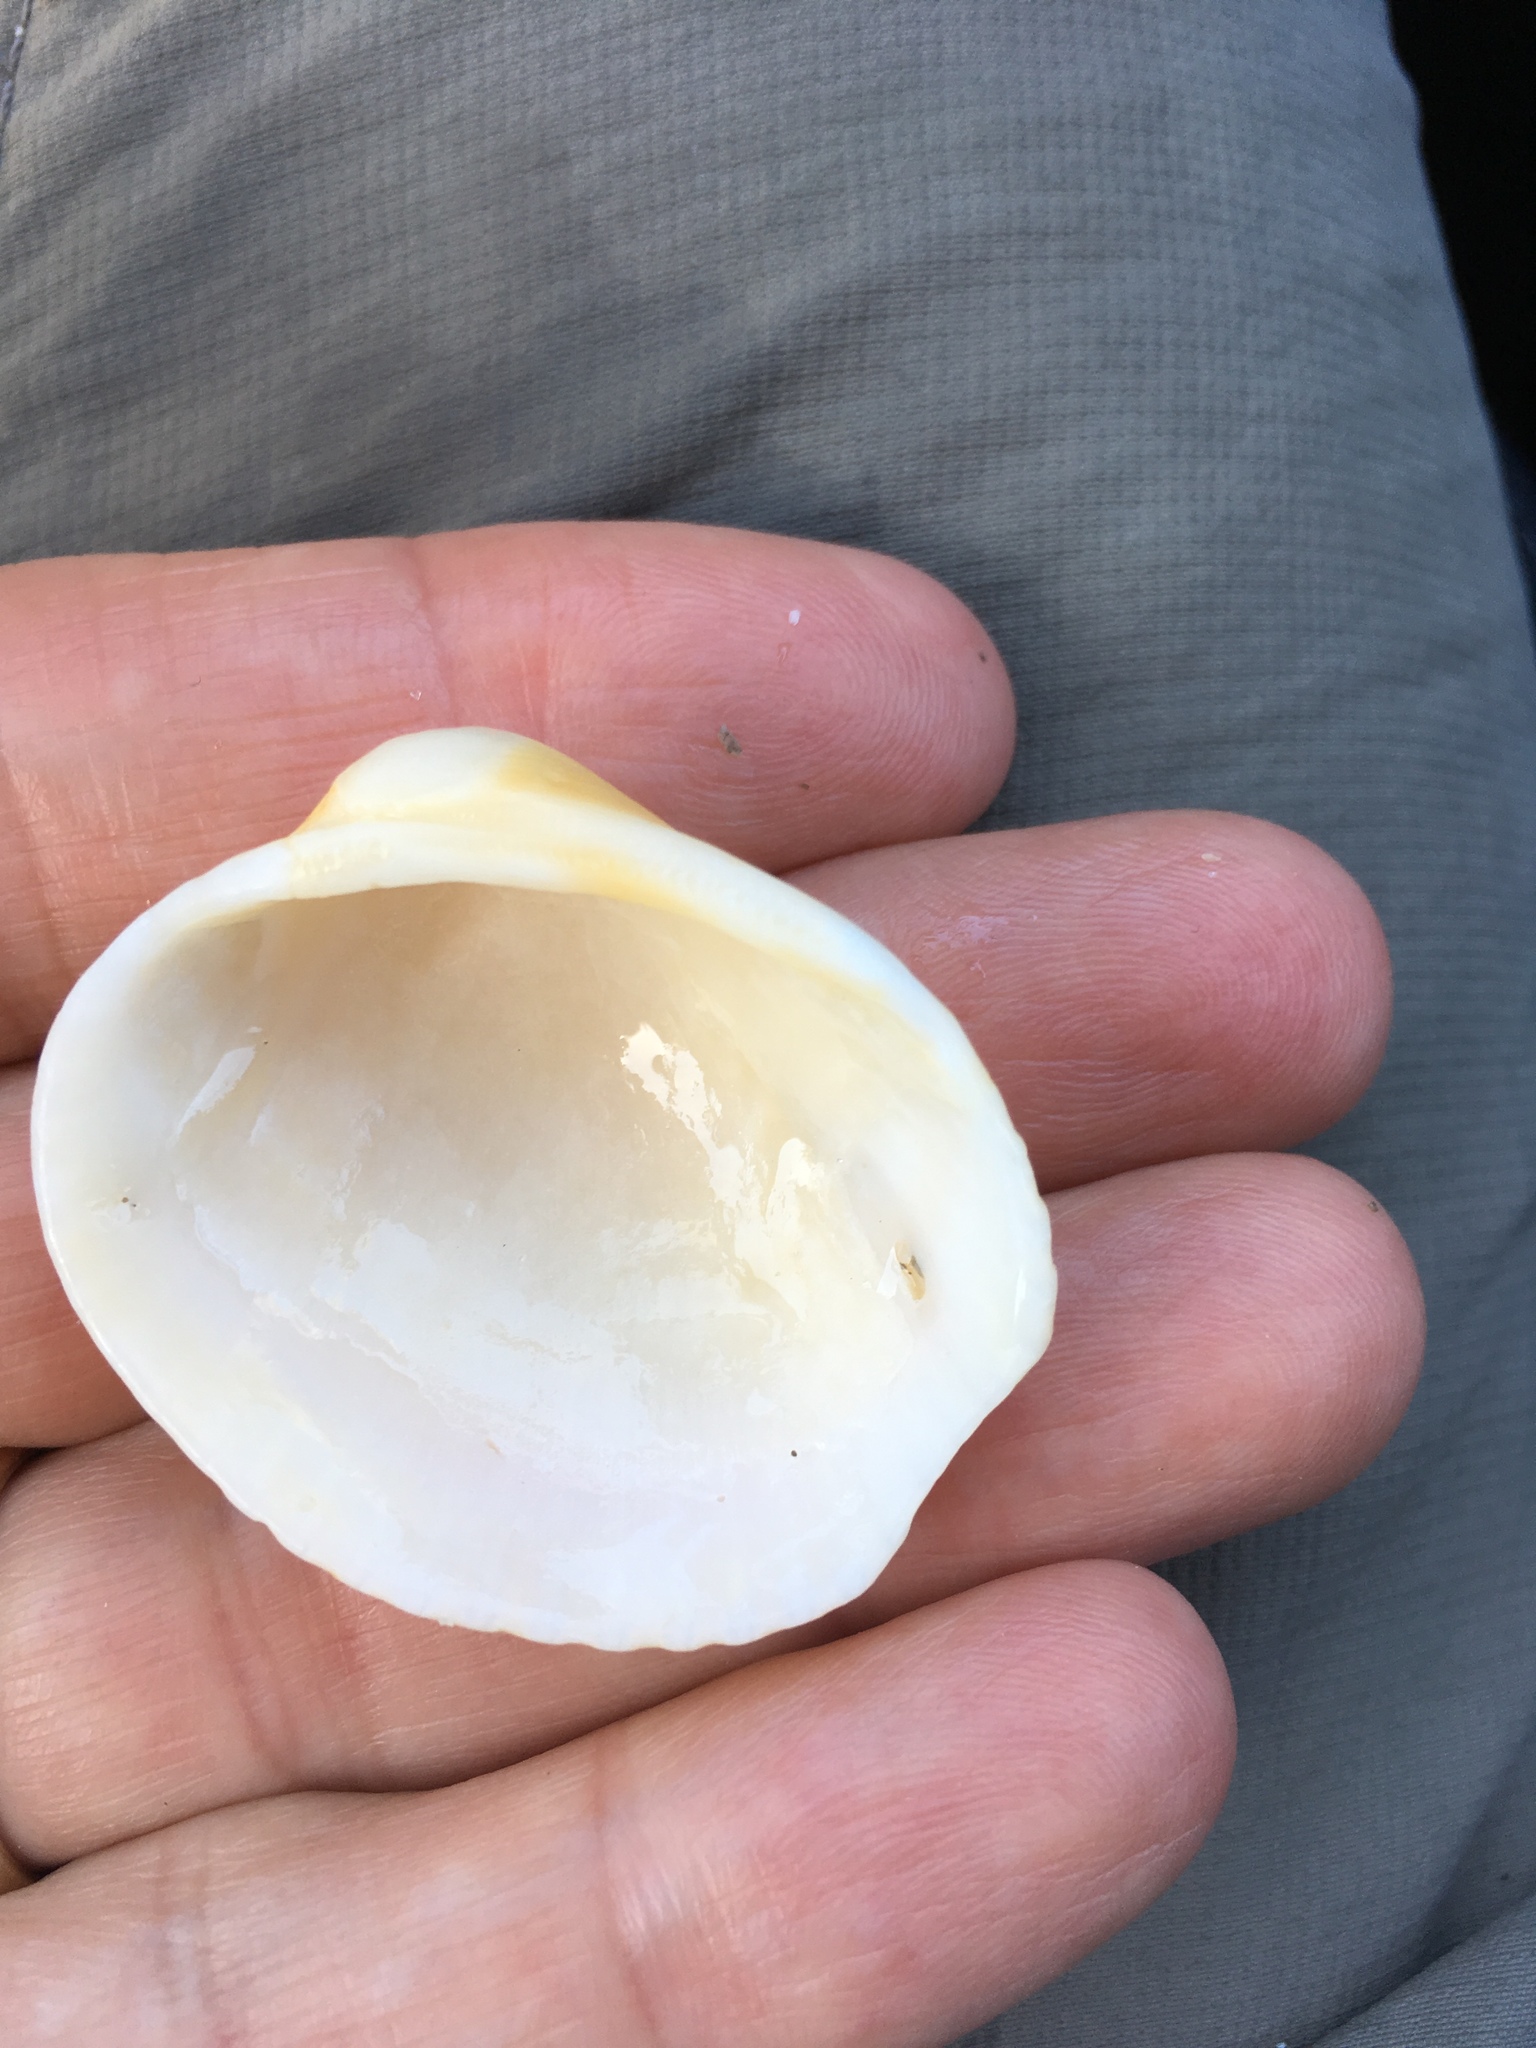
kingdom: Animalia
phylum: Mollusca
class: Bivalvia
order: Arcida
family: Arcidae
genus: Lunarca
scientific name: Lunarca ovalis
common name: Blood ark
